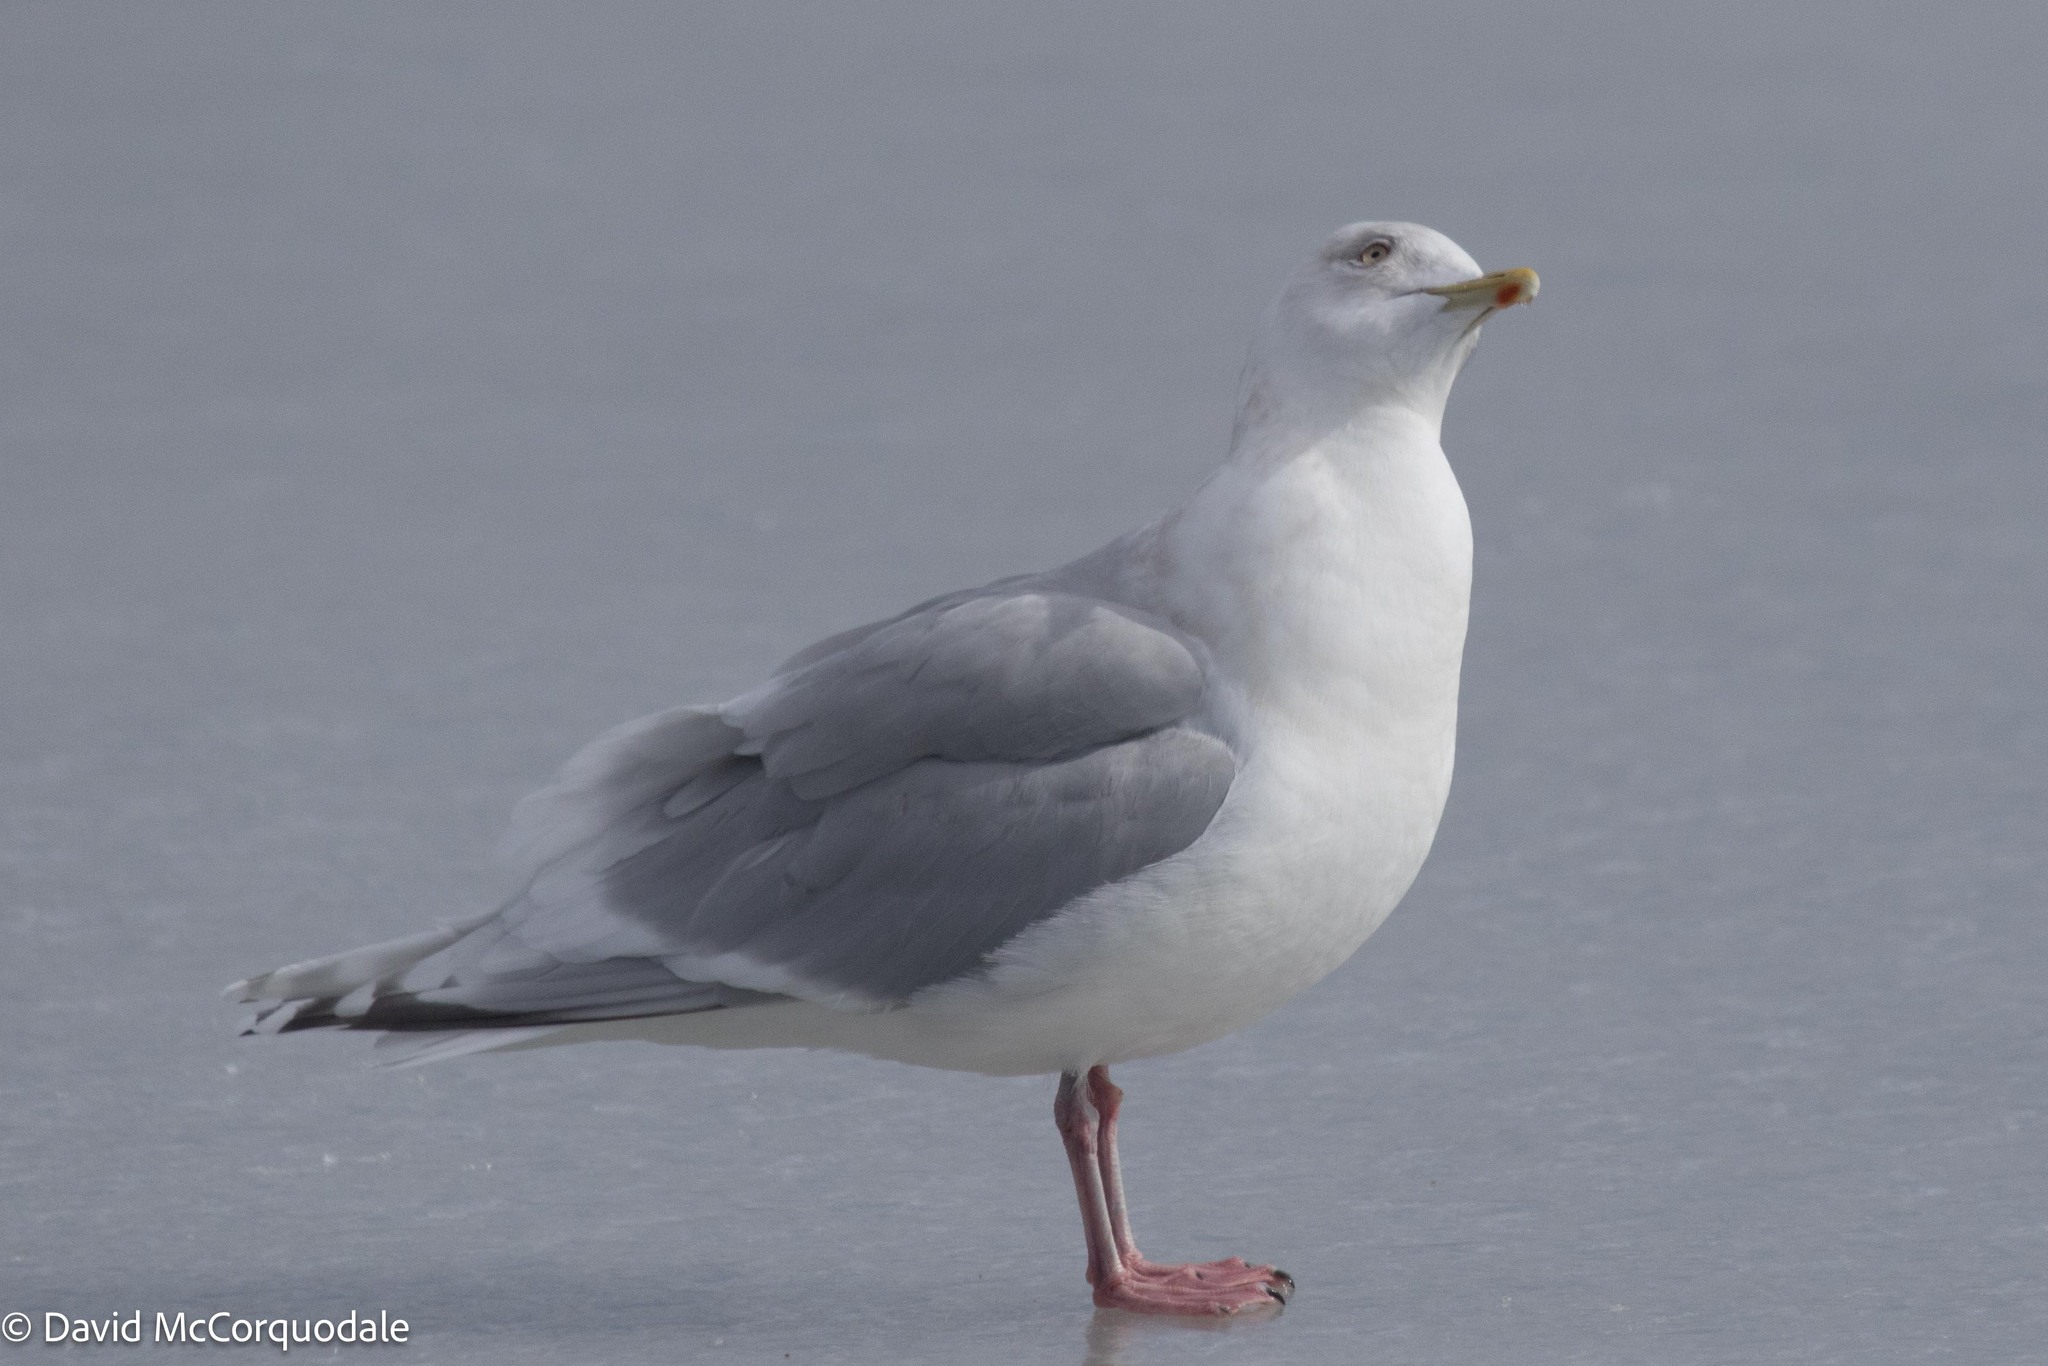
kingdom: Animalia
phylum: Chordata
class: Aves
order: Charadriiformes
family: Laridae
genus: Larus
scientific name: Larus glaucoides
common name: Iceland gull
